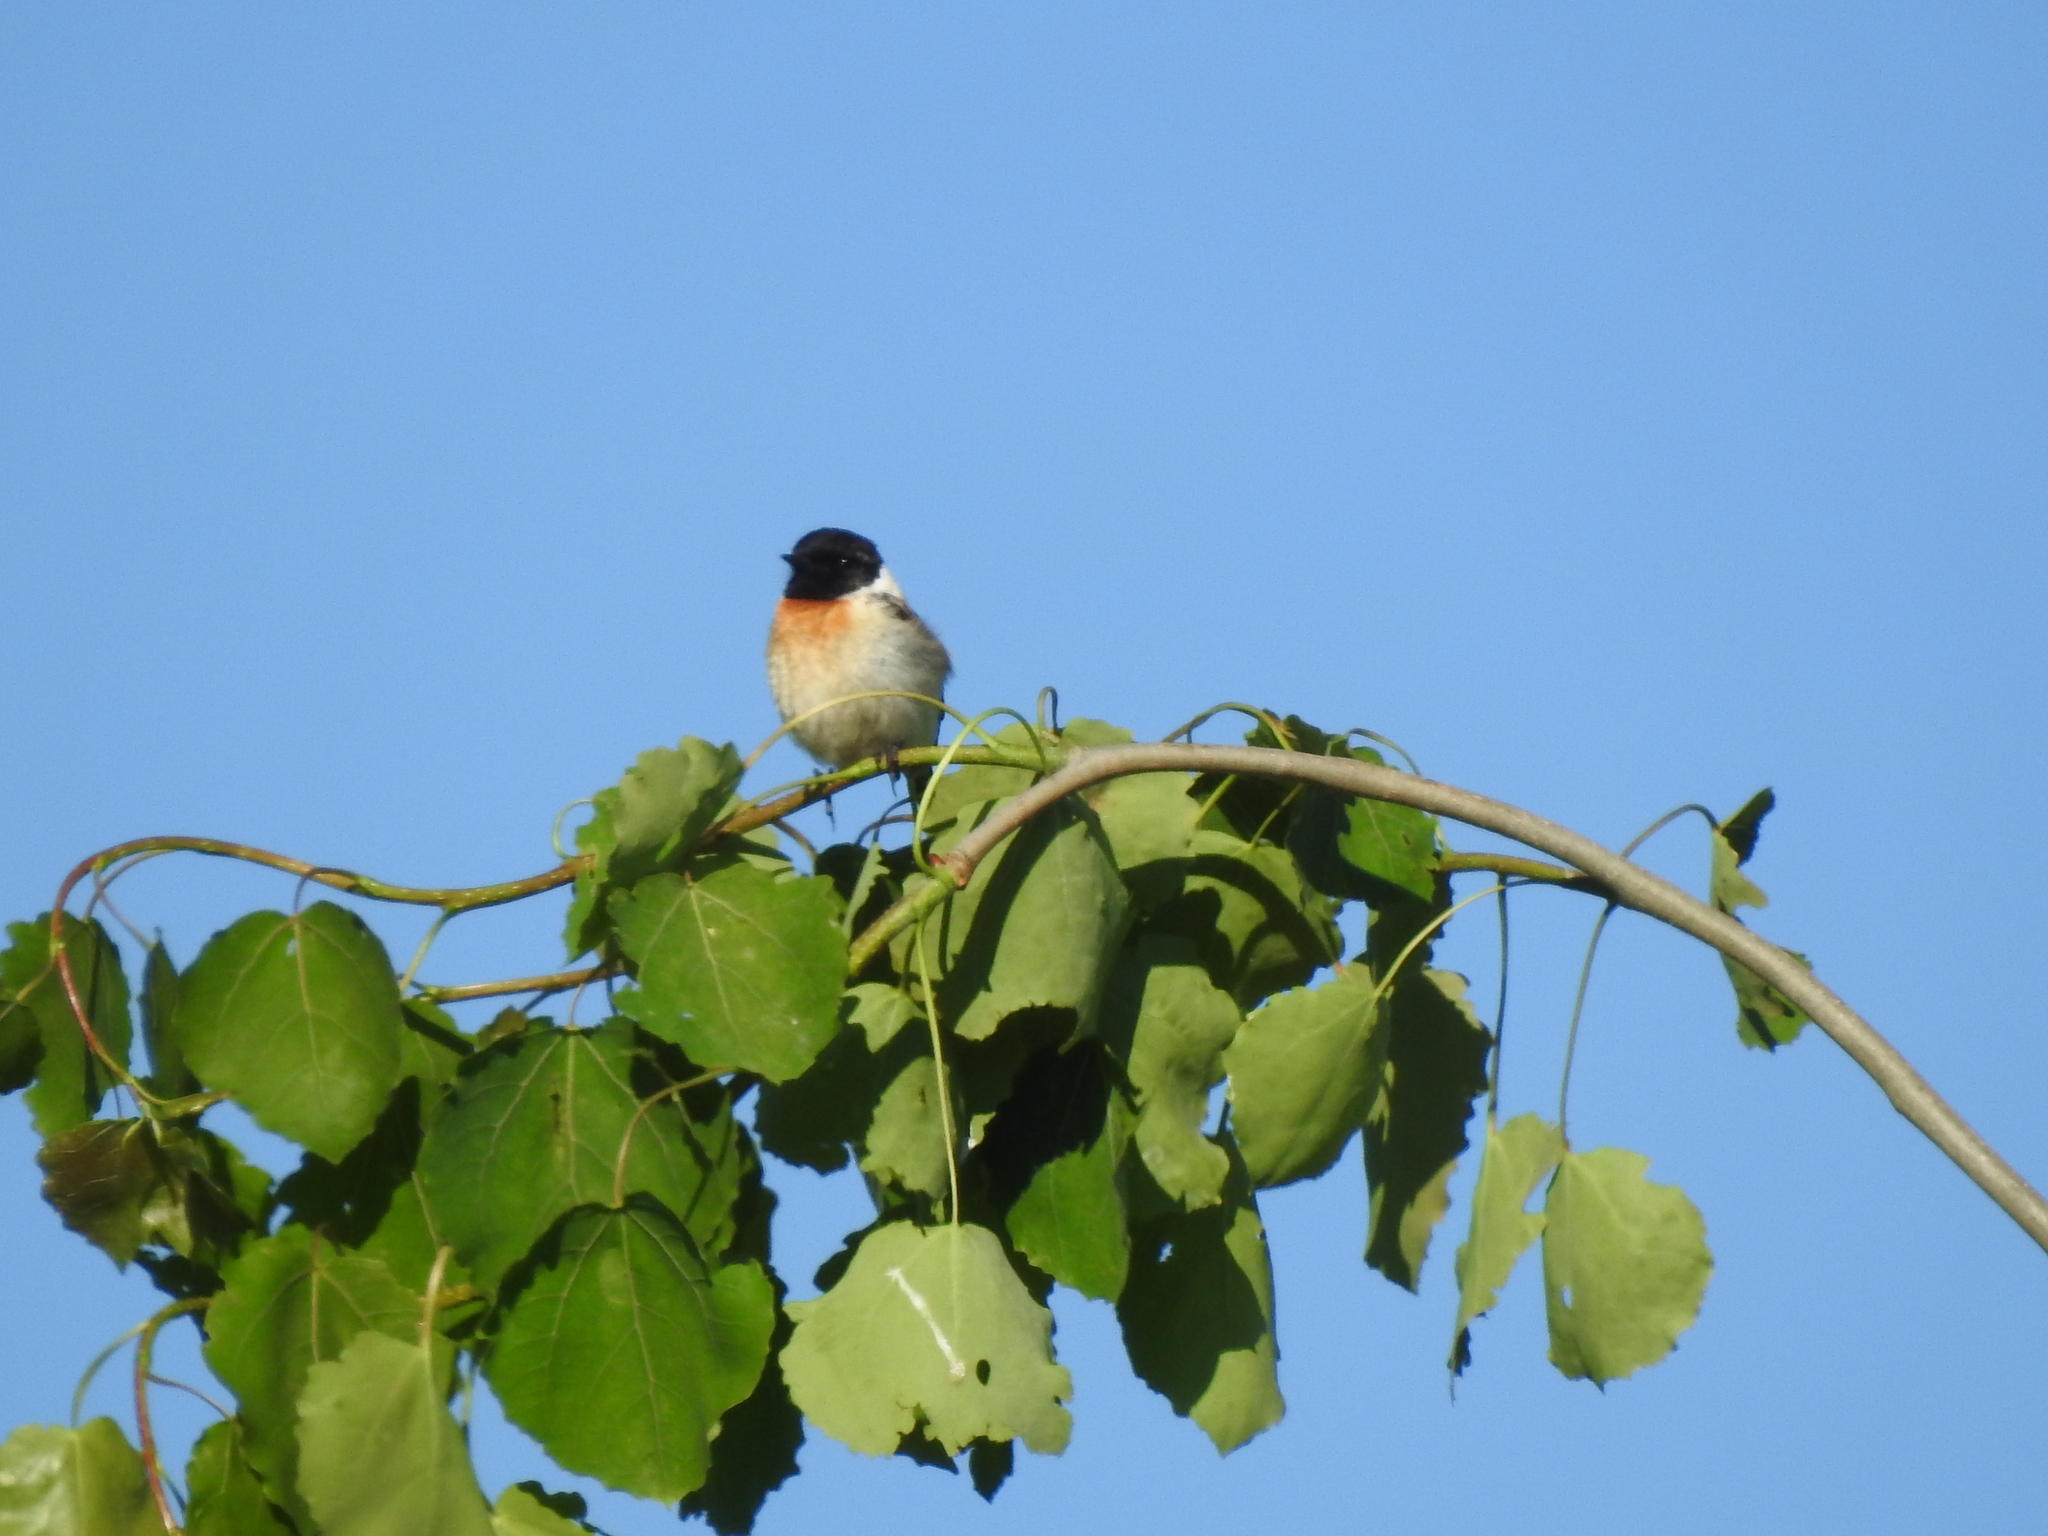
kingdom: Animalia
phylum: Chordata
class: Aves
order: Passeriformes
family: Muscicapidae
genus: Saxicola
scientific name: Saxicola maurus
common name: Siberian stonechat
